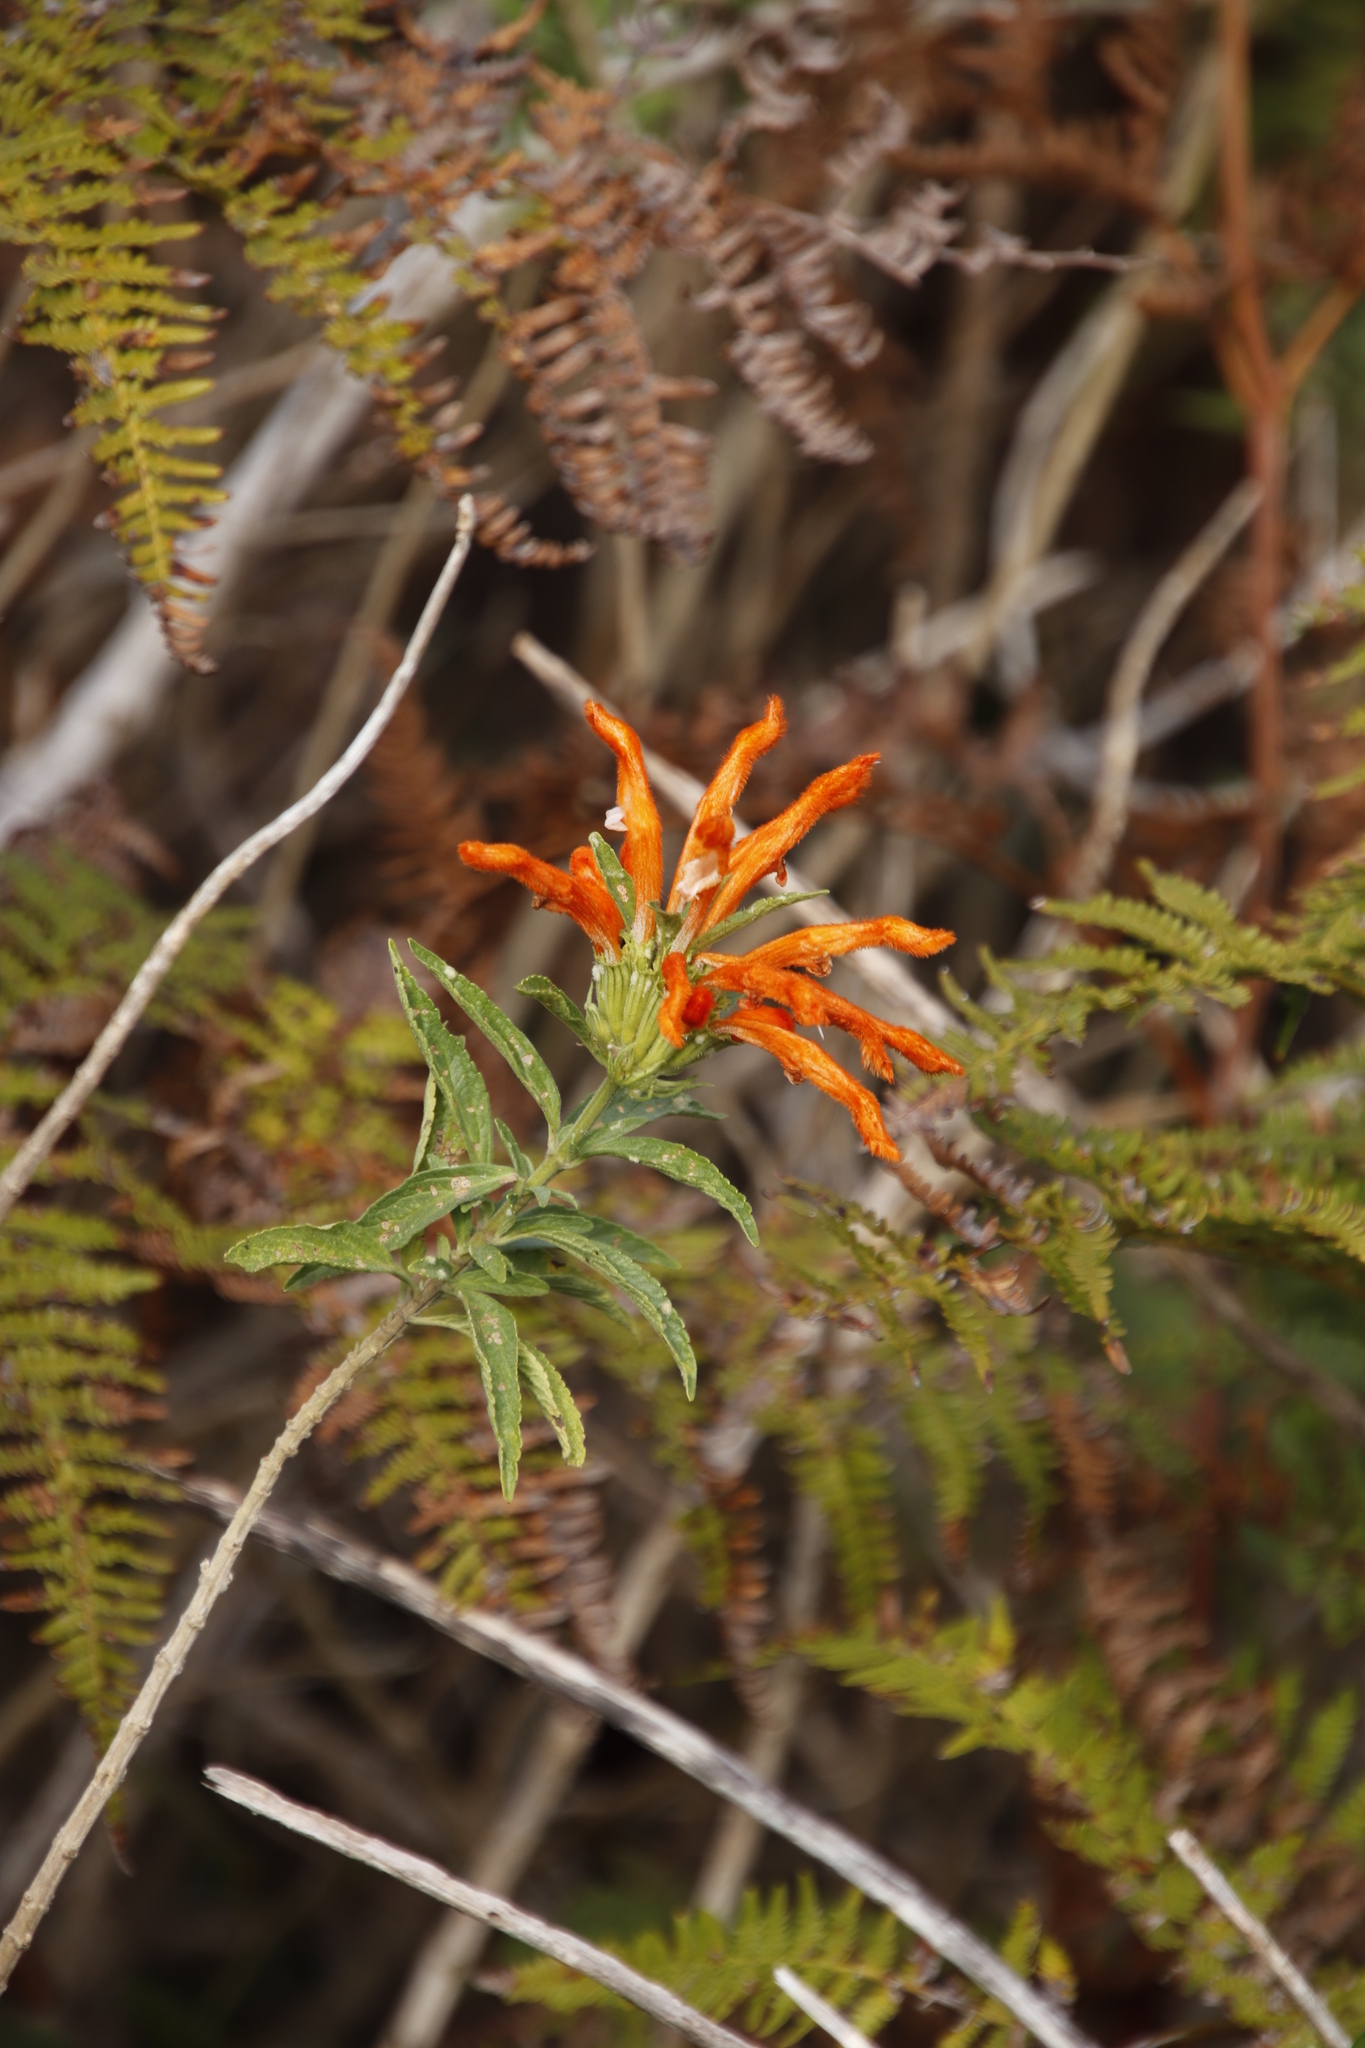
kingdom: Plantae
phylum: Tracheophyta
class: Magnoliopsida
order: Lamiales
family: Lamiaceae
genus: Leonotis
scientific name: Leonotis leonurus
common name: Lion's ear
